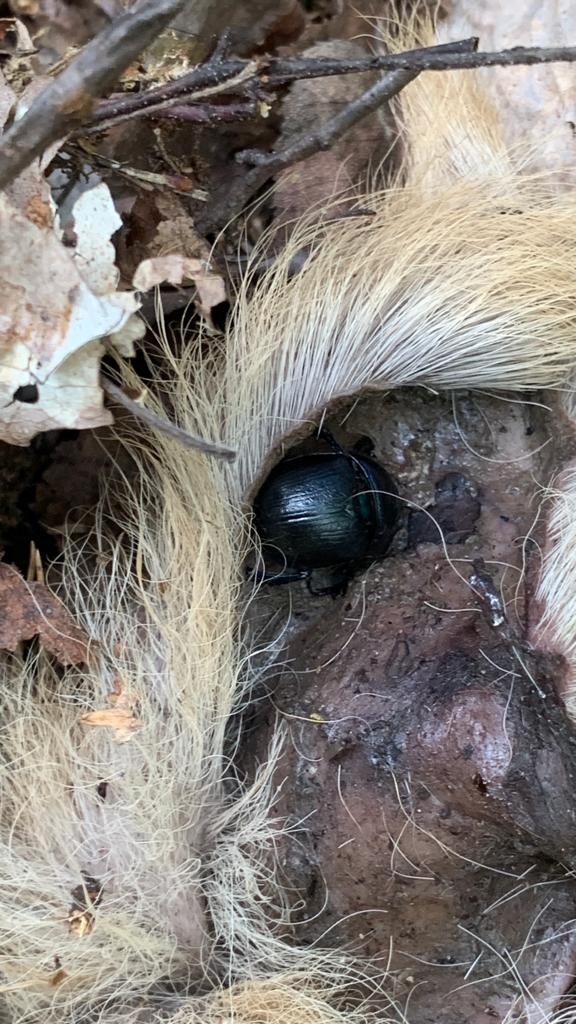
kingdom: Animalia
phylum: Arthropoda
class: Insecta
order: Coleoptera
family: Geotrupidae
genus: Anoplotrupes
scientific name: Anoplotrupes stercorosus
